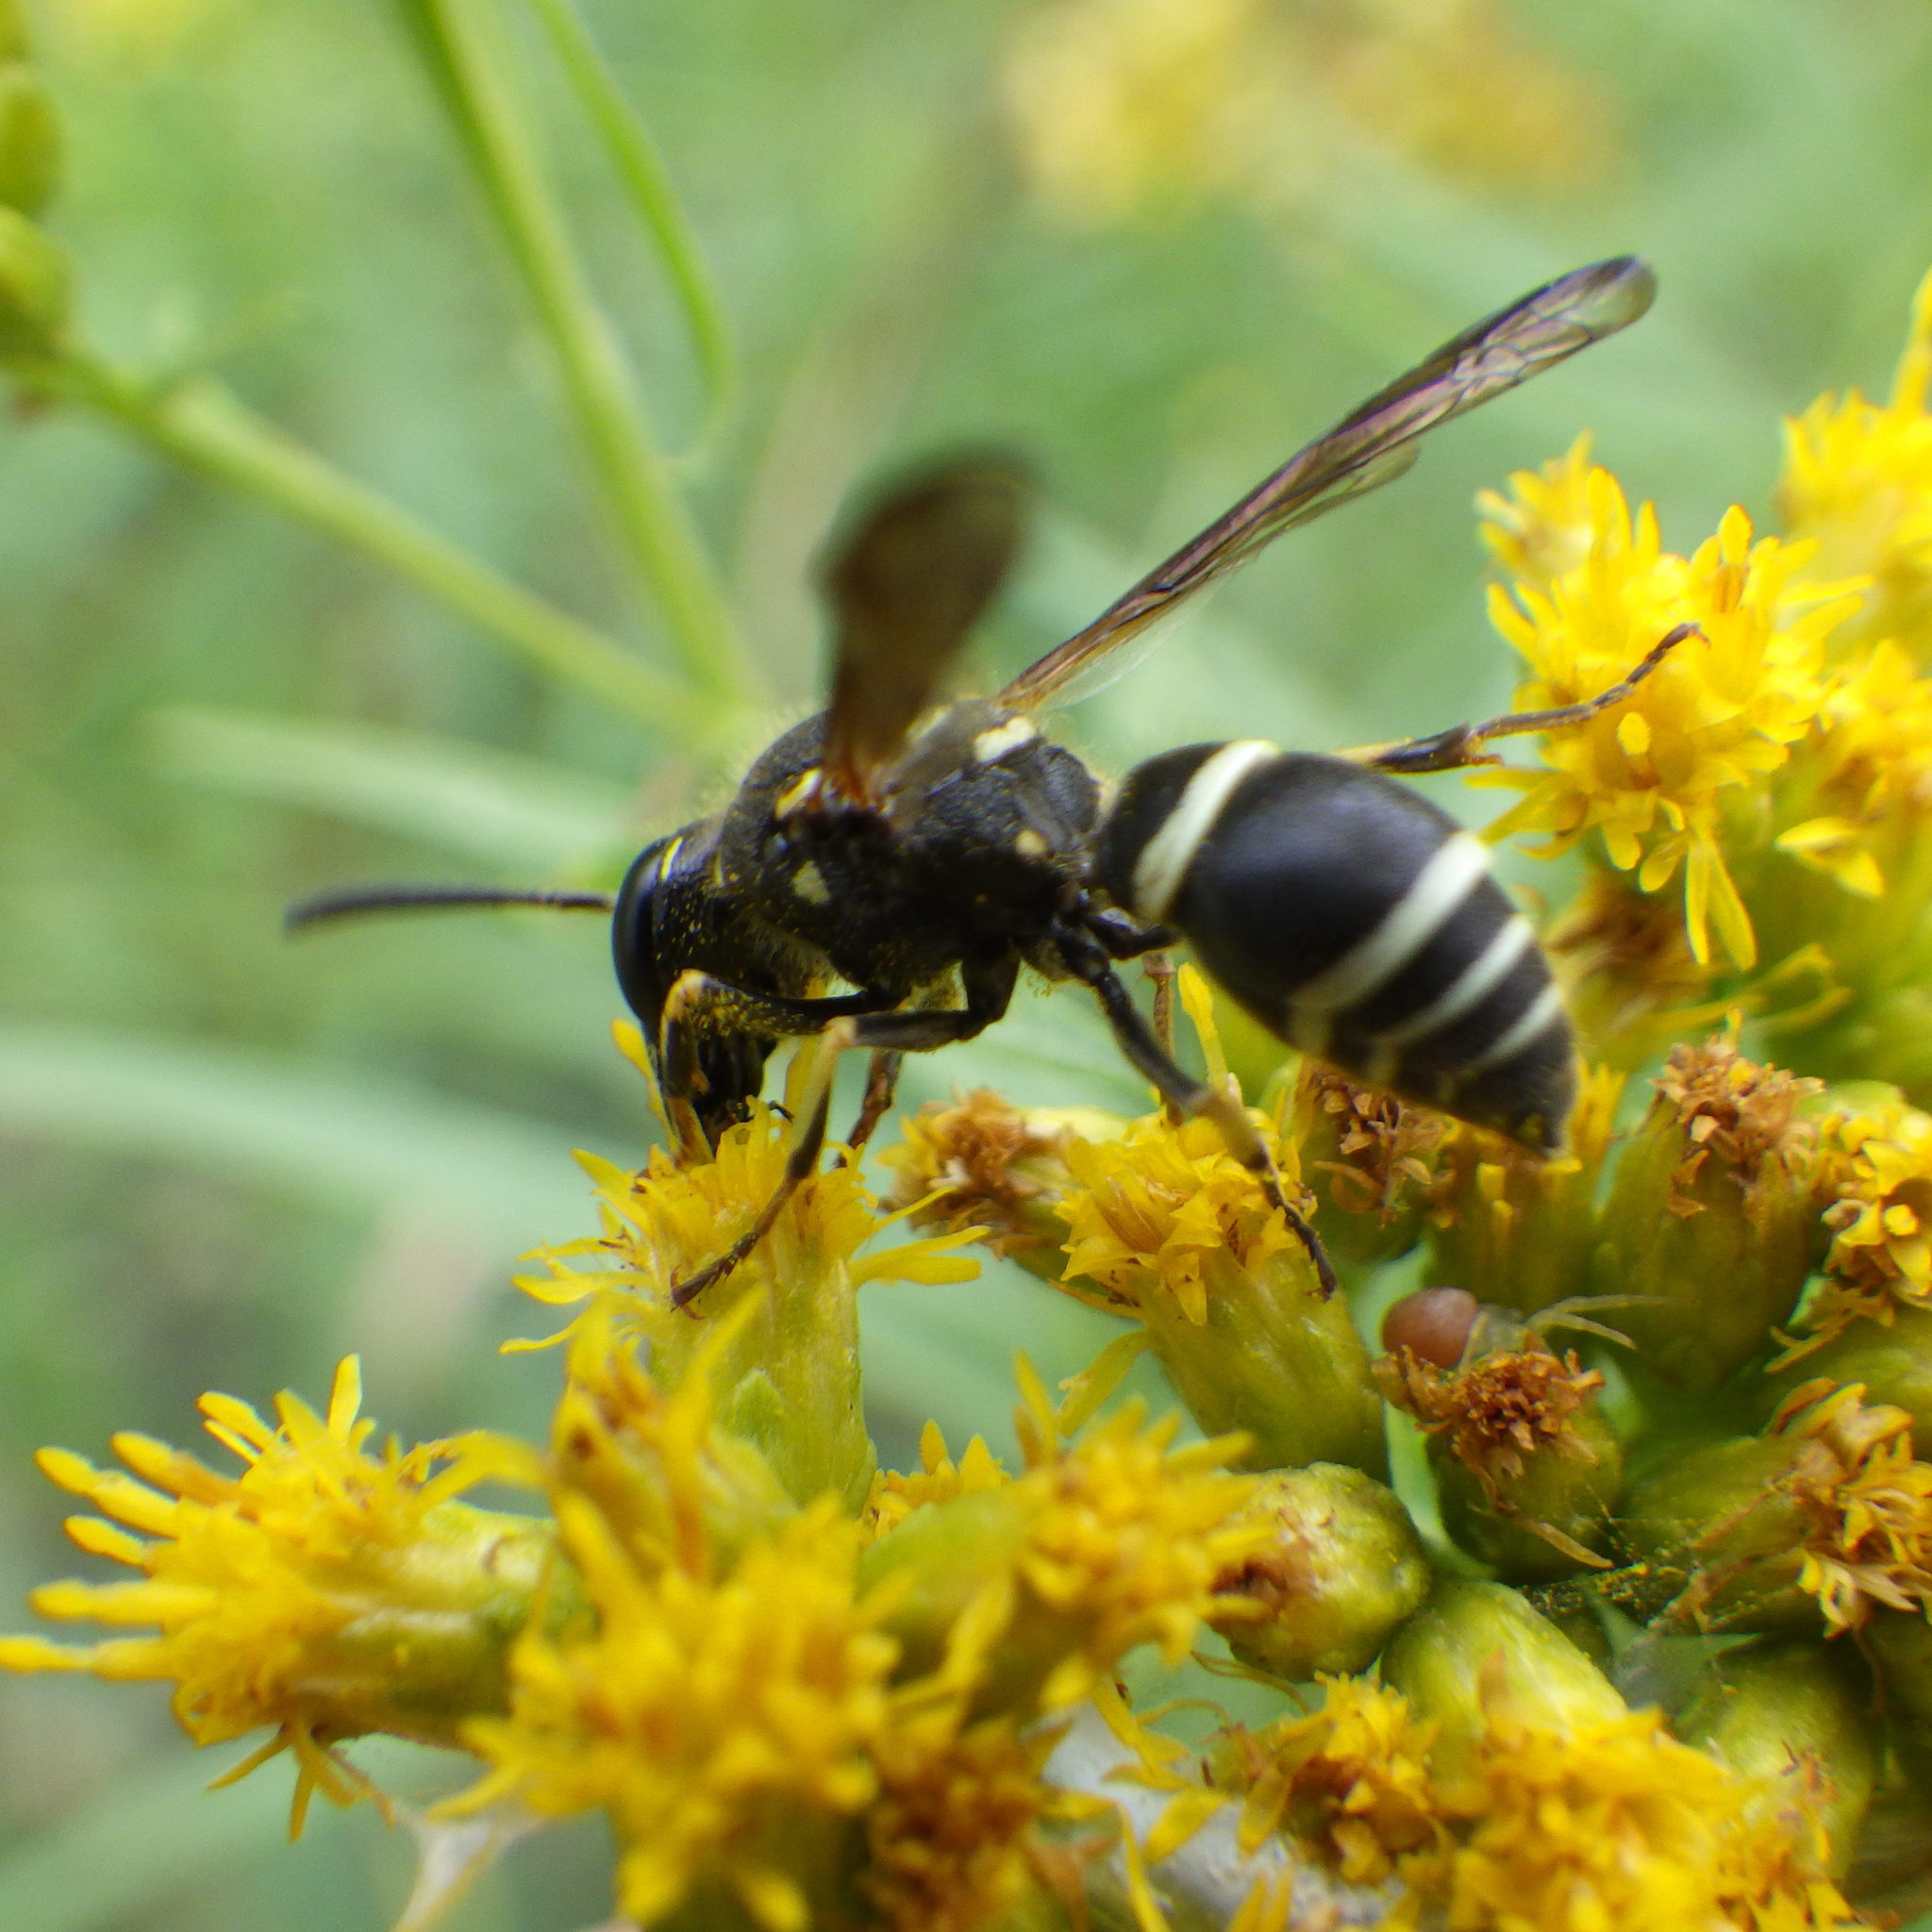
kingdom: Animalia
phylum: Arthropoda
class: Insecta
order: Hymenoptera
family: Vespidae
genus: Ancistrocerus
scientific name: Ancistrocerus catskill
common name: Vespid wasp
